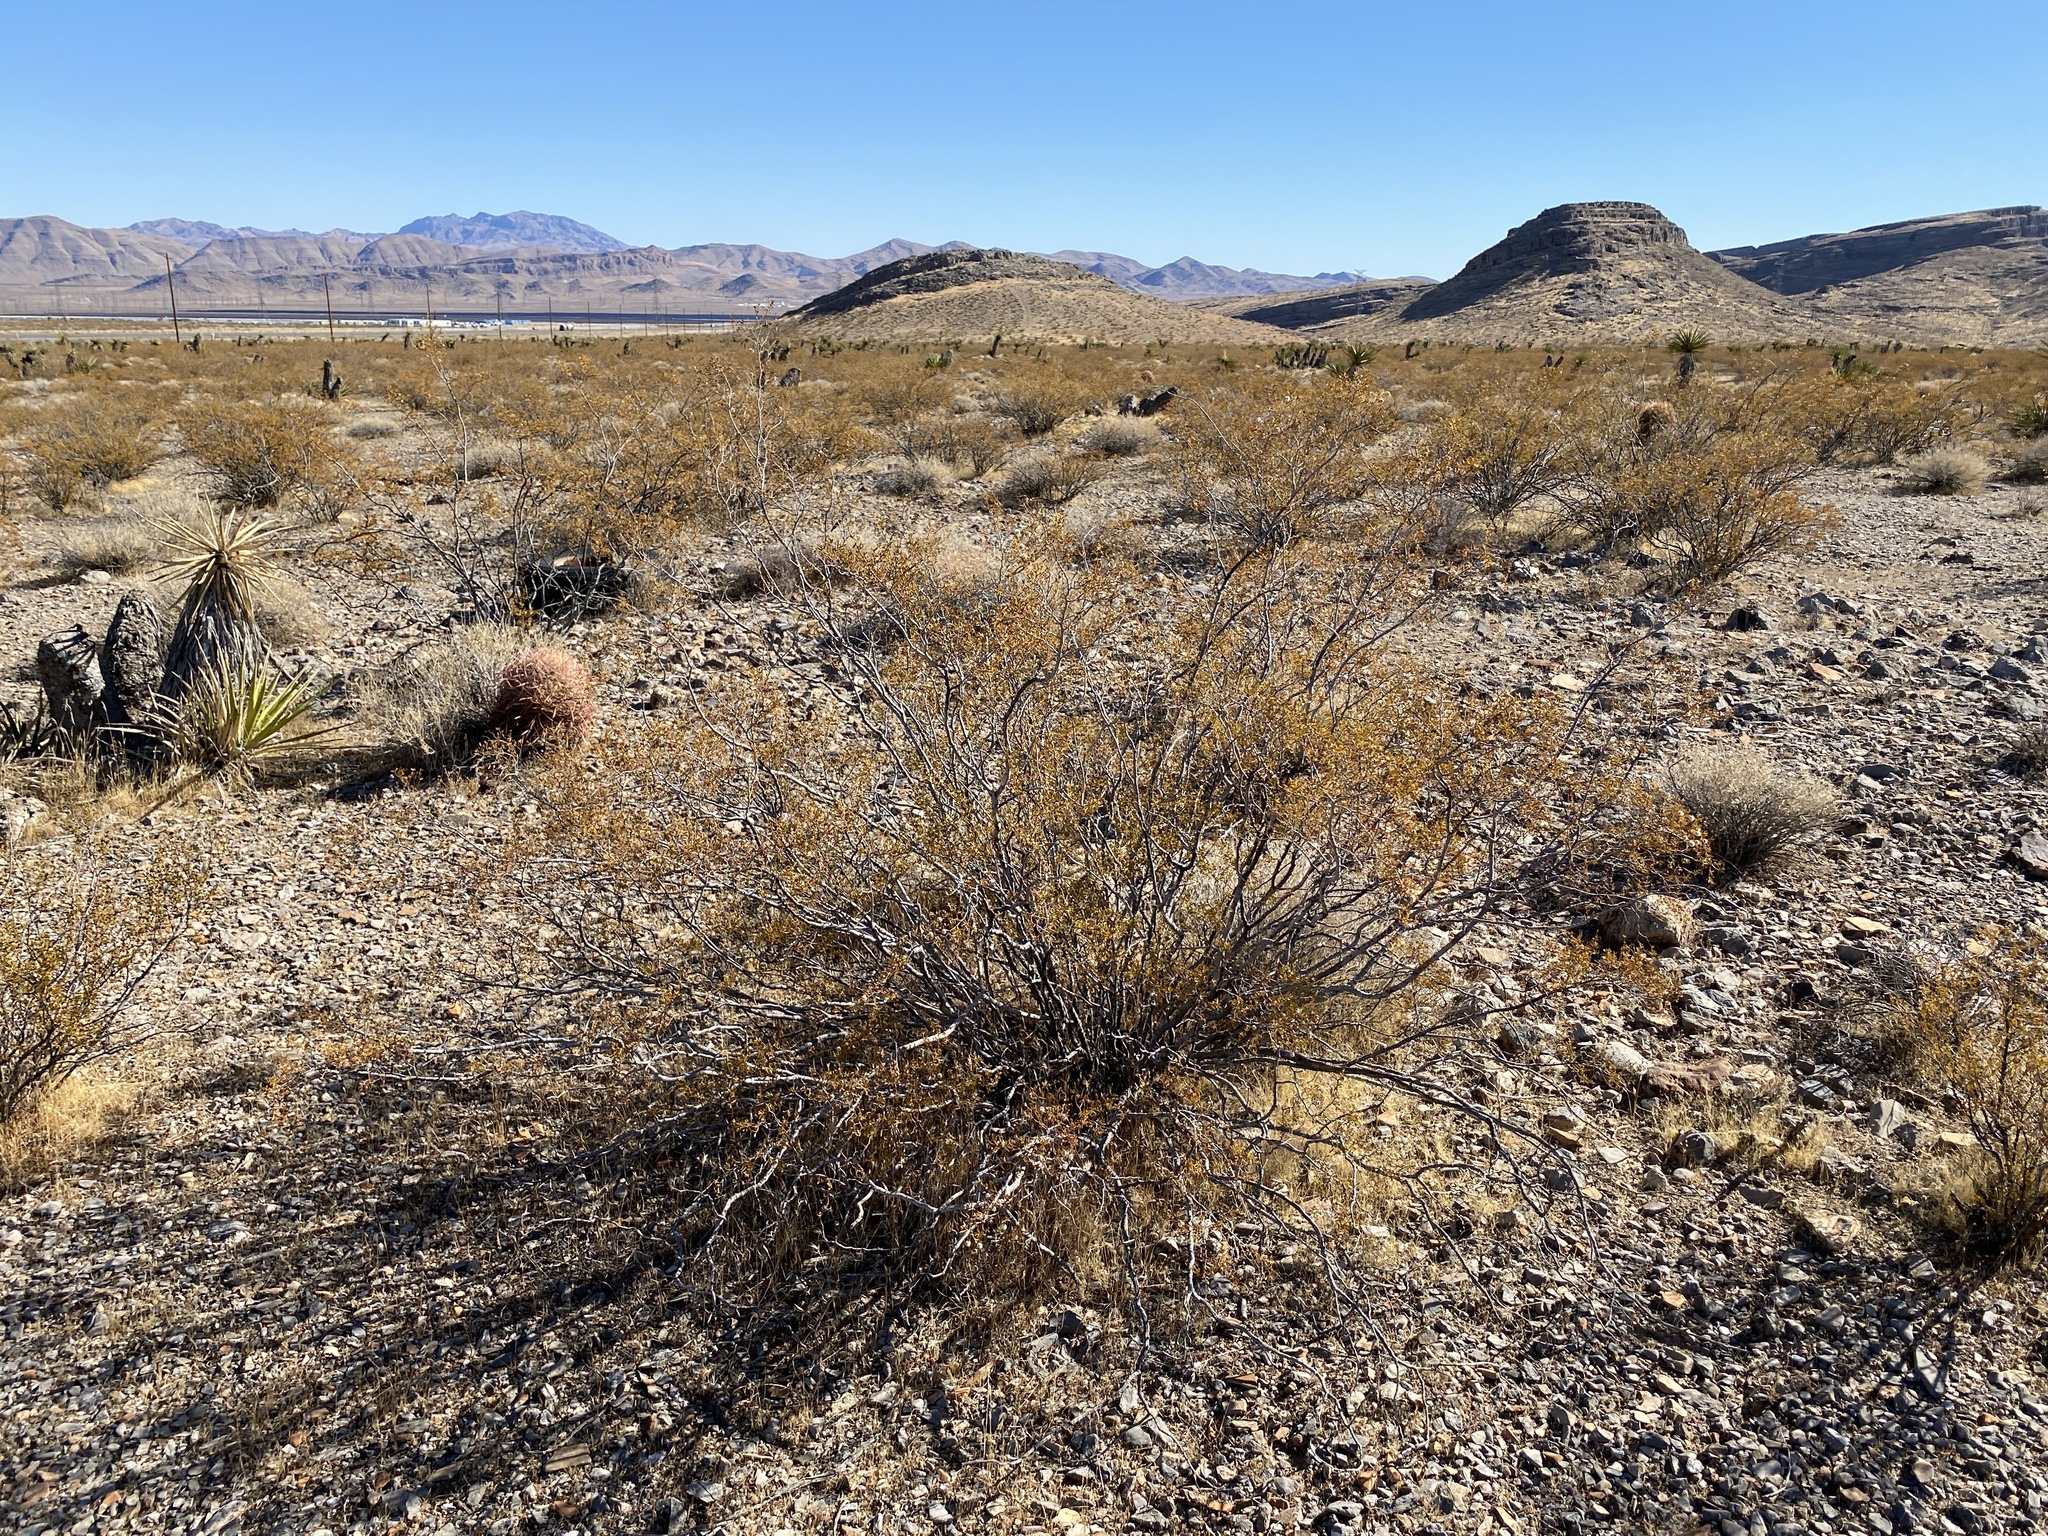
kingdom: Plantae
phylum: Tracheophyta
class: Magnoliopsida
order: Zygophyllales
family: Zygophyllaceae
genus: Larrea
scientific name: Larrea tridentata
